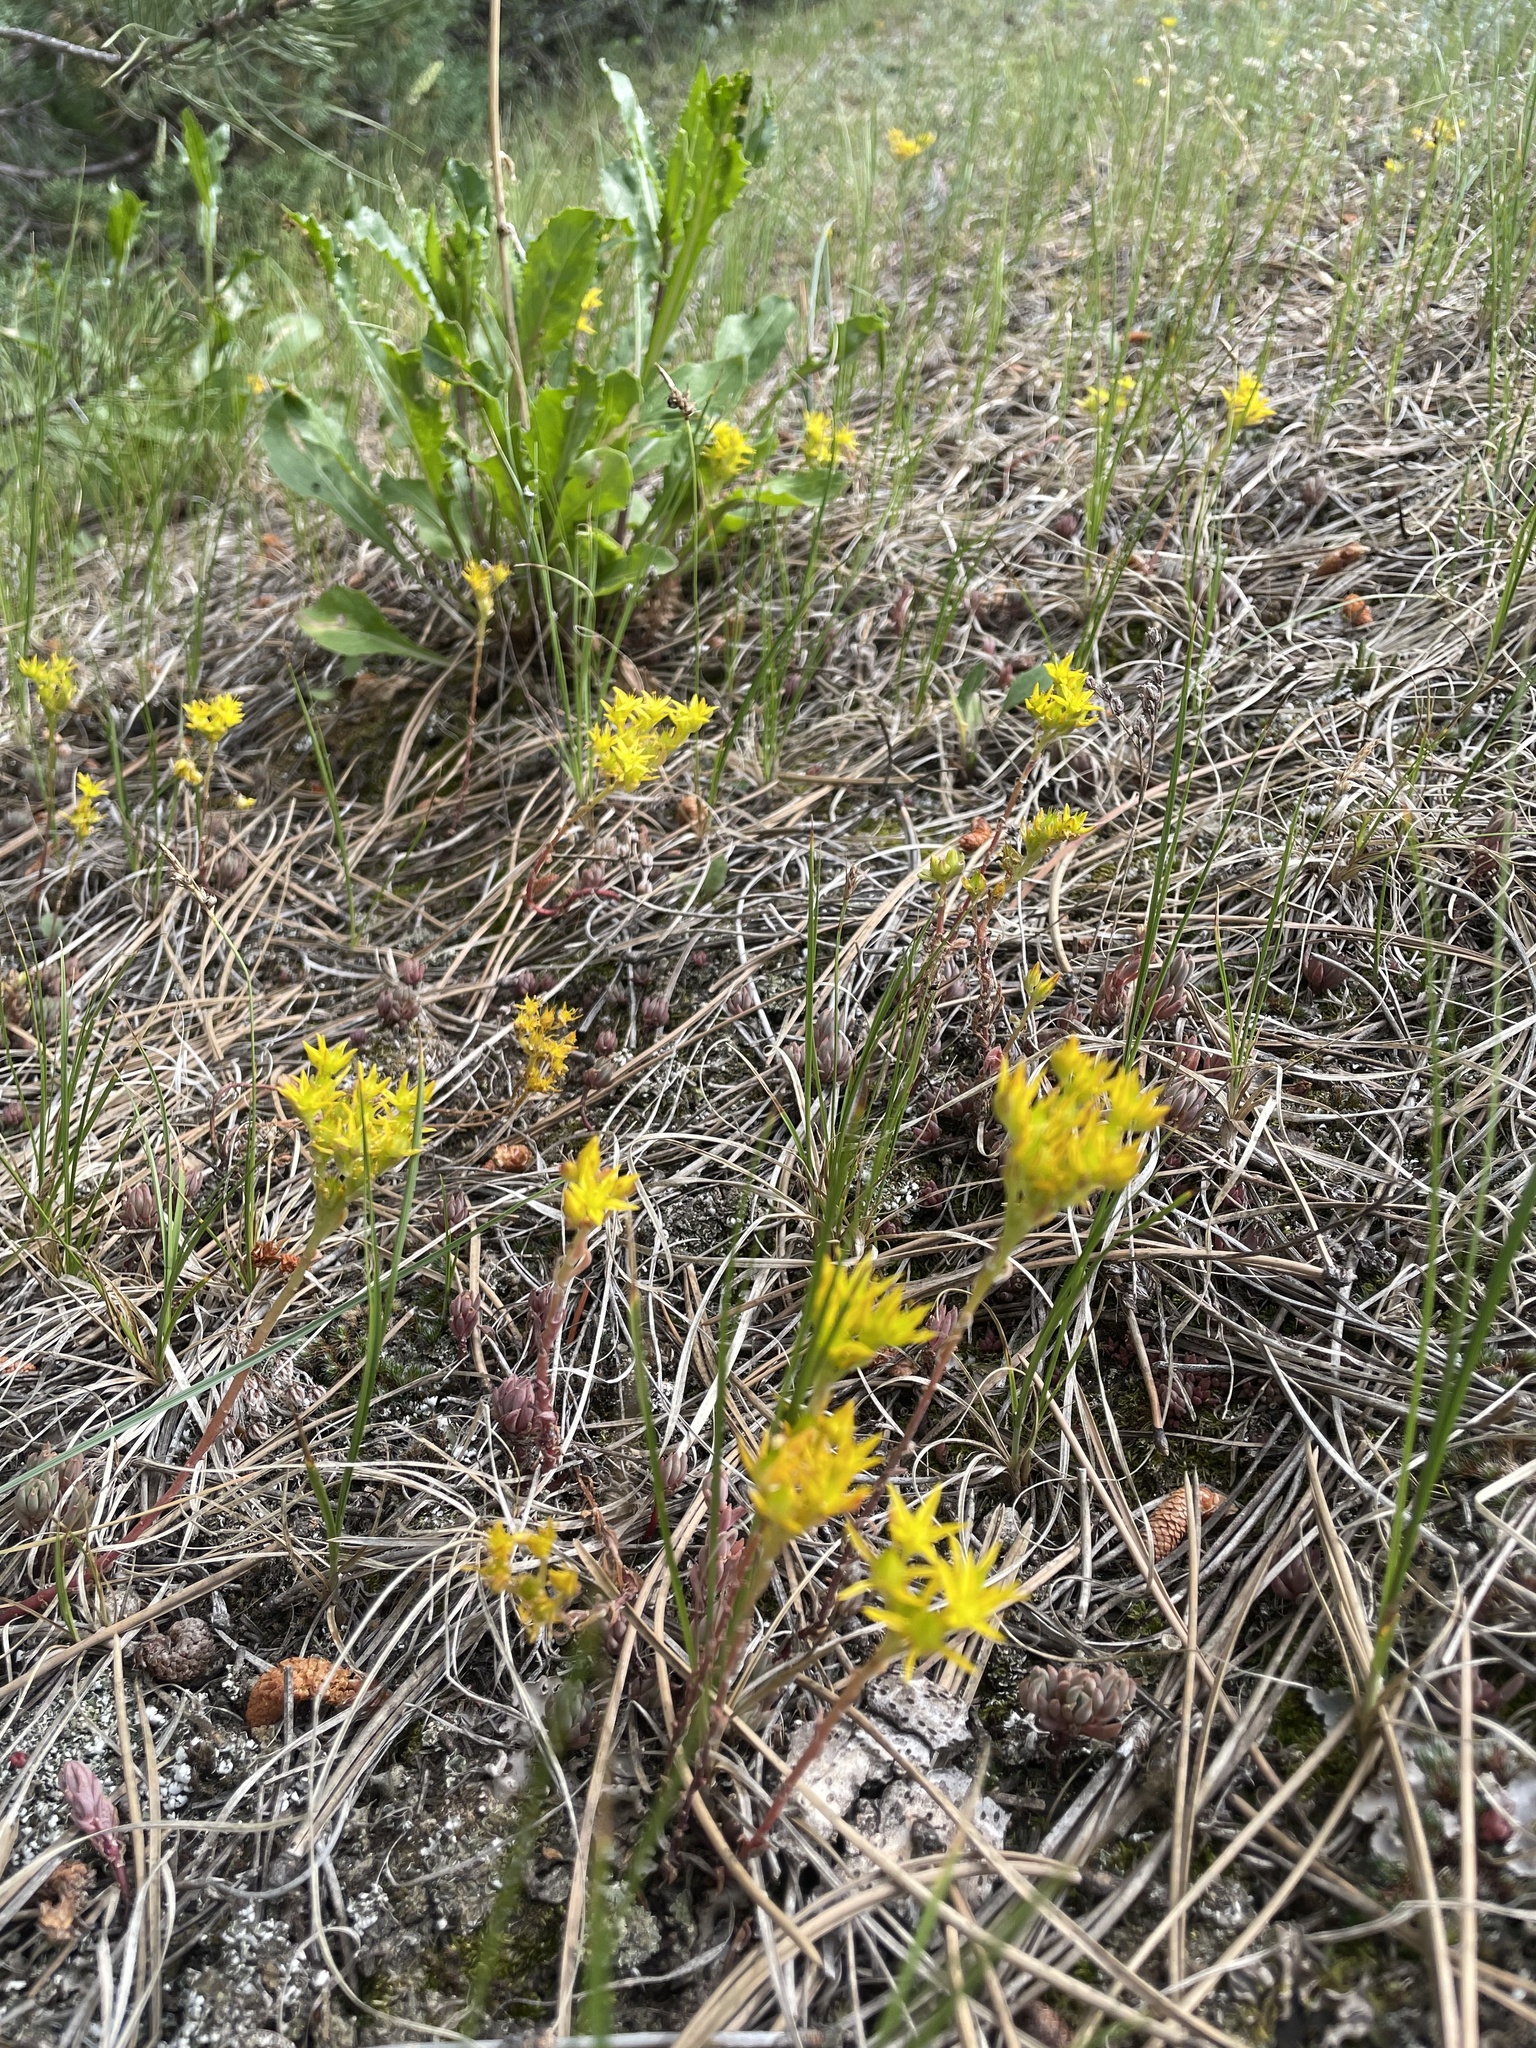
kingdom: Plantae
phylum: Tracheophyta
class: Magnoliopsida
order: Saxifragales
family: Crassulaceae
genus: Sedum
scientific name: Sedum lanceolatum
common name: Common stonecrop
